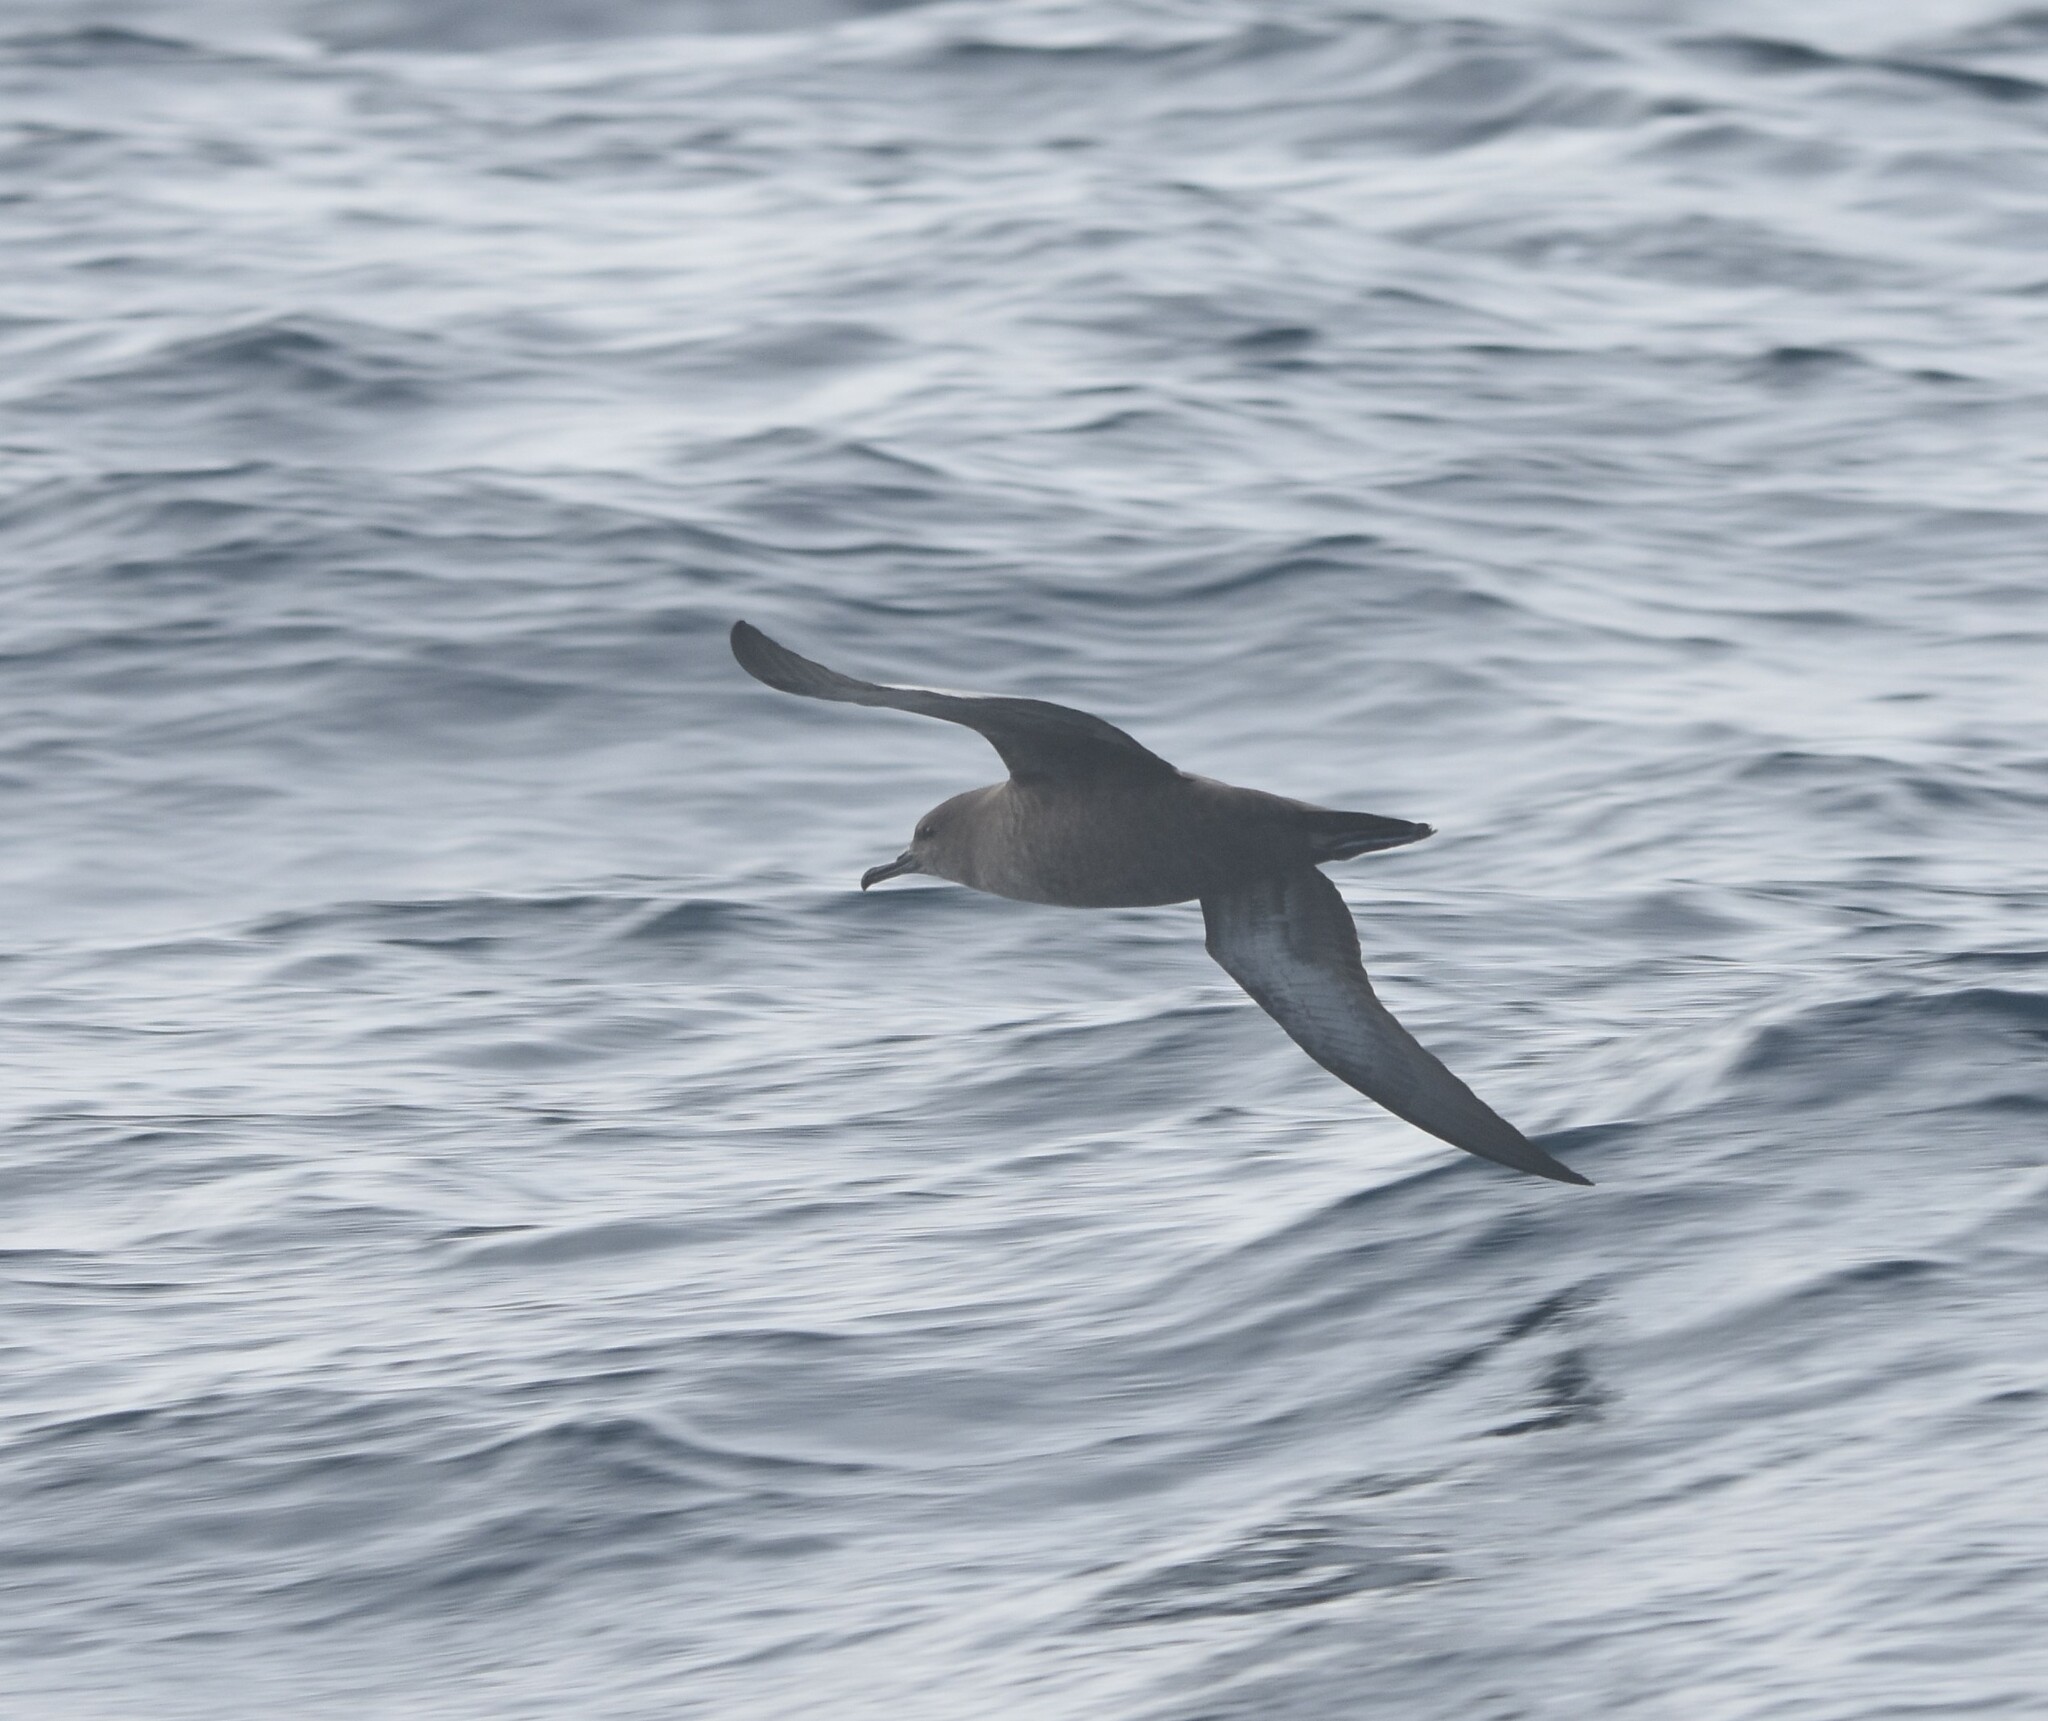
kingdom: Animalia
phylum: Chordata
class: Aves
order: Procellariiformes
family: Procellariidae
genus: Puffinus
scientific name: Puffinus griseus
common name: Sooty shearwater
